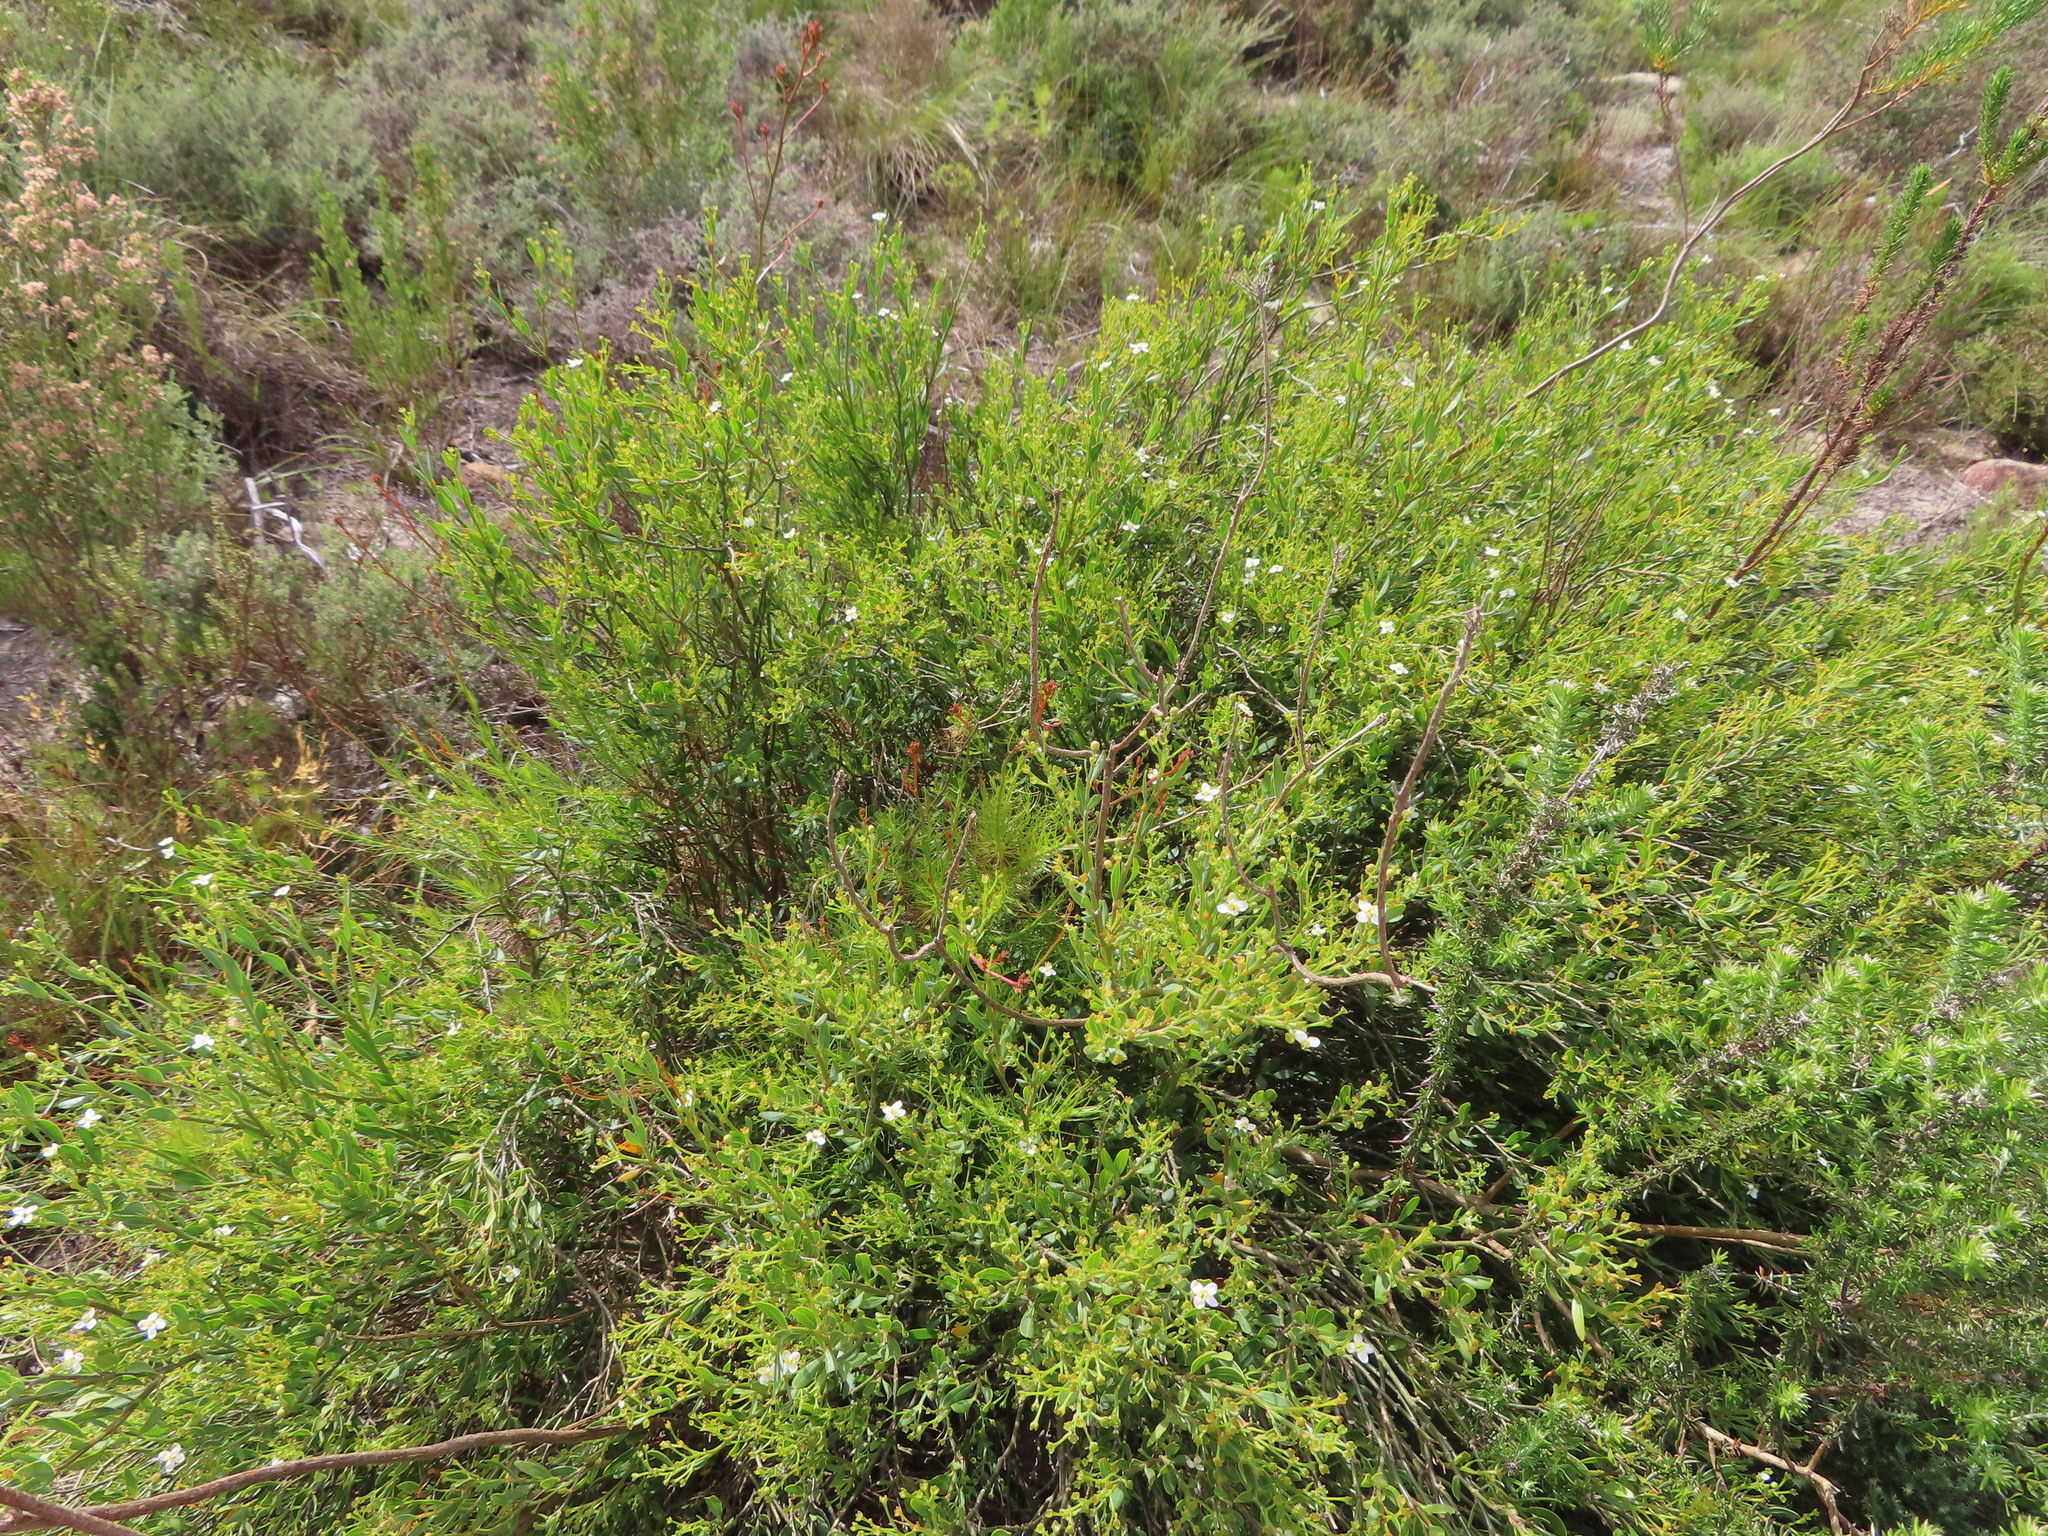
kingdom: Plantae
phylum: Tracheophyta
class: Magnoliopsida
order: Solanales
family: Montiniaceae
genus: Montinia
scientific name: Montinia caryophyllacea
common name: Wild clove-bush
